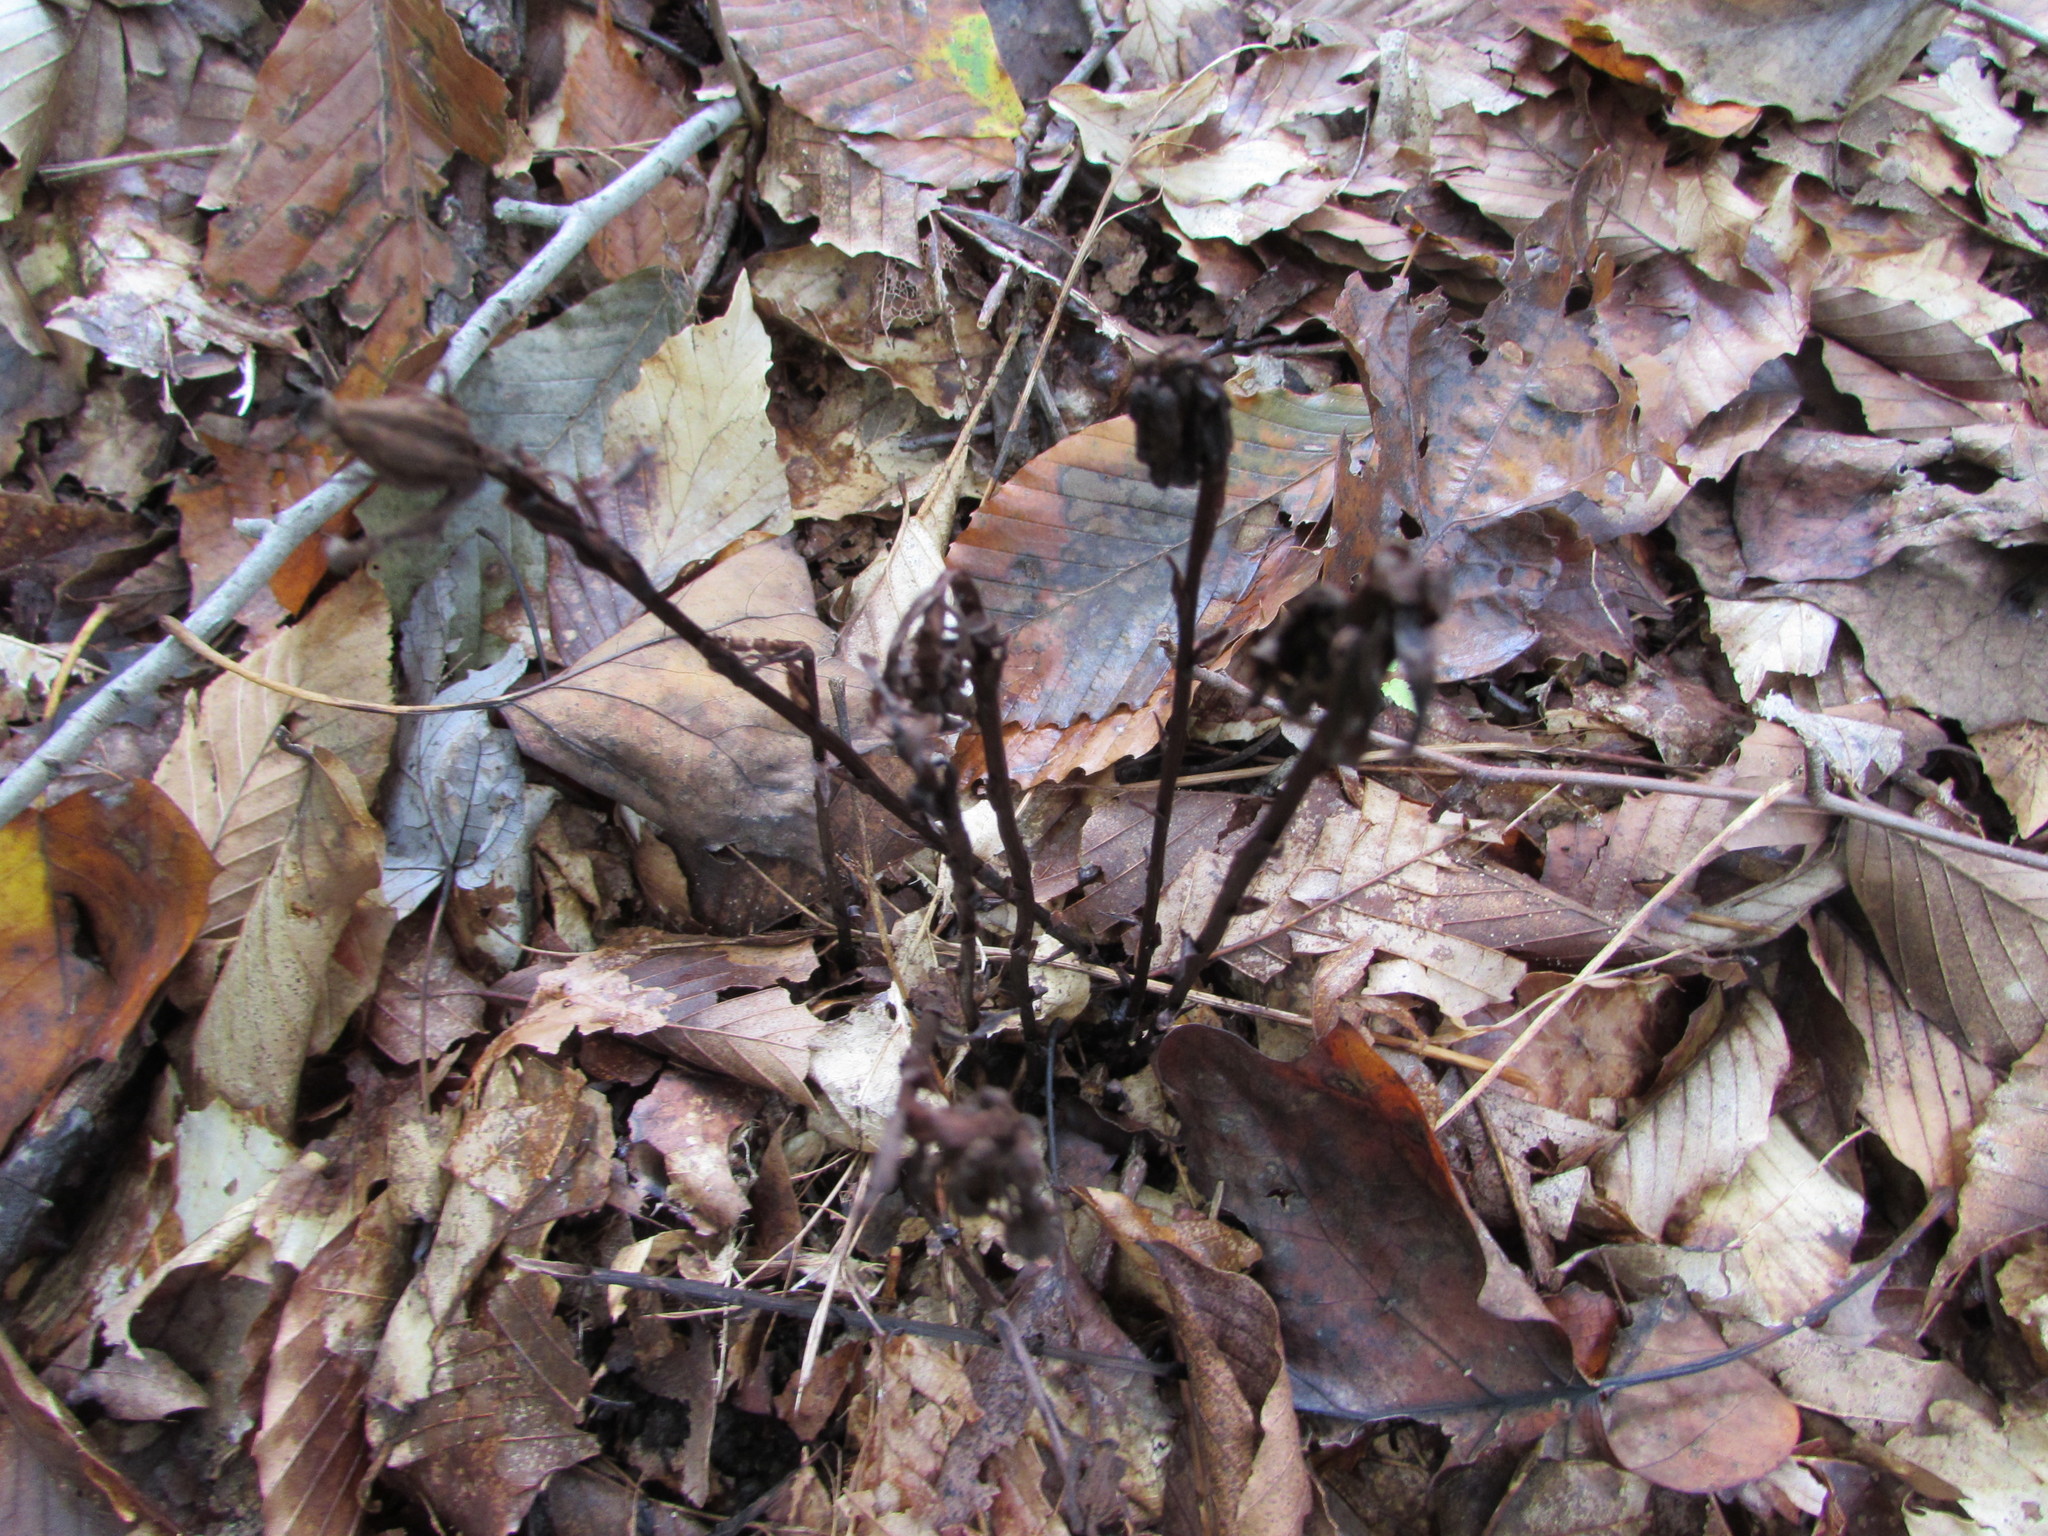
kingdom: Plantae
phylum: Tracheophyta
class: Magnoliopsida
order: Ericales
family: Ericaceae
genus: Monotropa
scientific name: Monotropa uniflora
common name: Convulsion root
